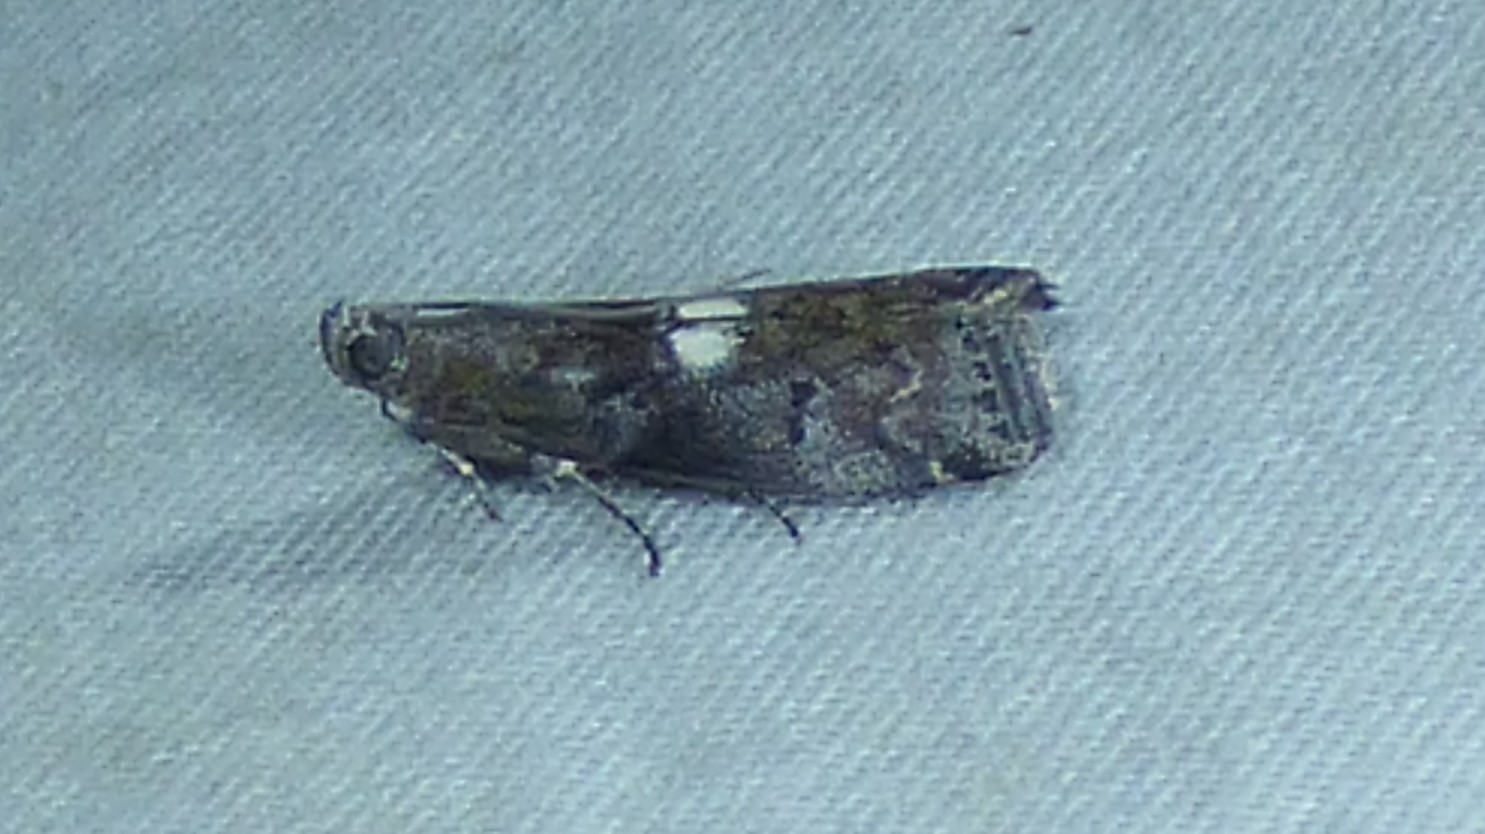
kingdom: Animalia
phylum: Arthropoda
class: Insecta
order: Lepidoptera
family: Pyralidae
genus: Salebriaria
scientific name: Salebriaria engeli
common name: Engel's salebriaria moth
